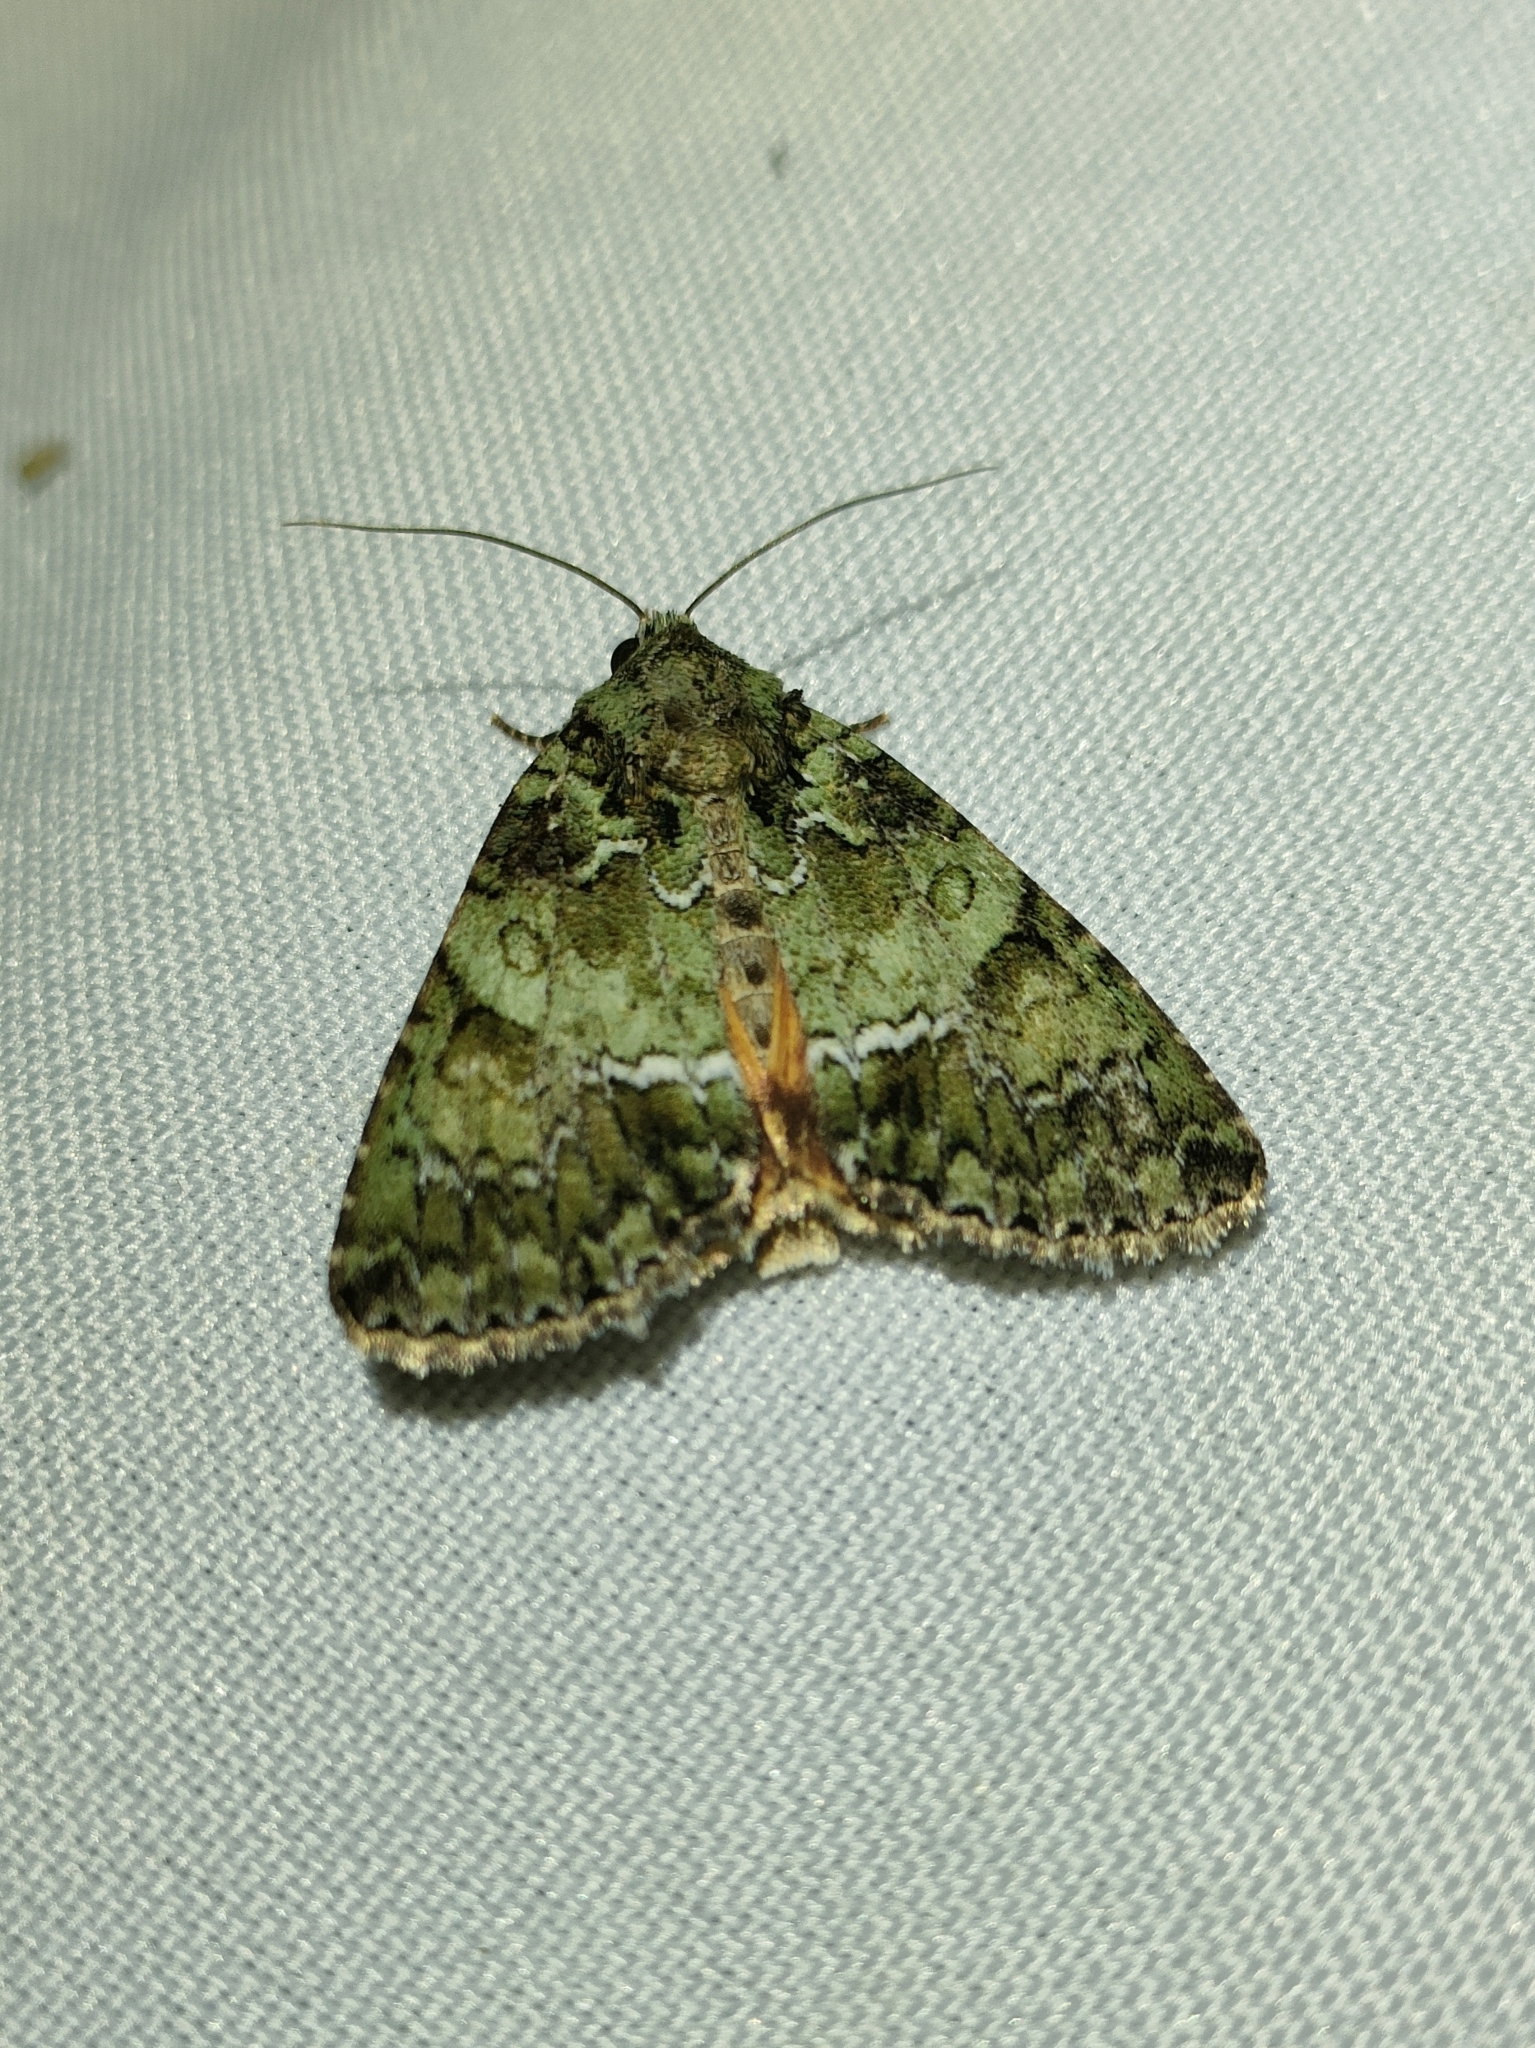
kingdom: Animalia
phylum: Arthropoda
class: Insecta
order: Lepidoptera
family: Noctuidae
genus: Polyphaenis
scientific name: Polyphaenis sericata
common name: Guernsey underwing
